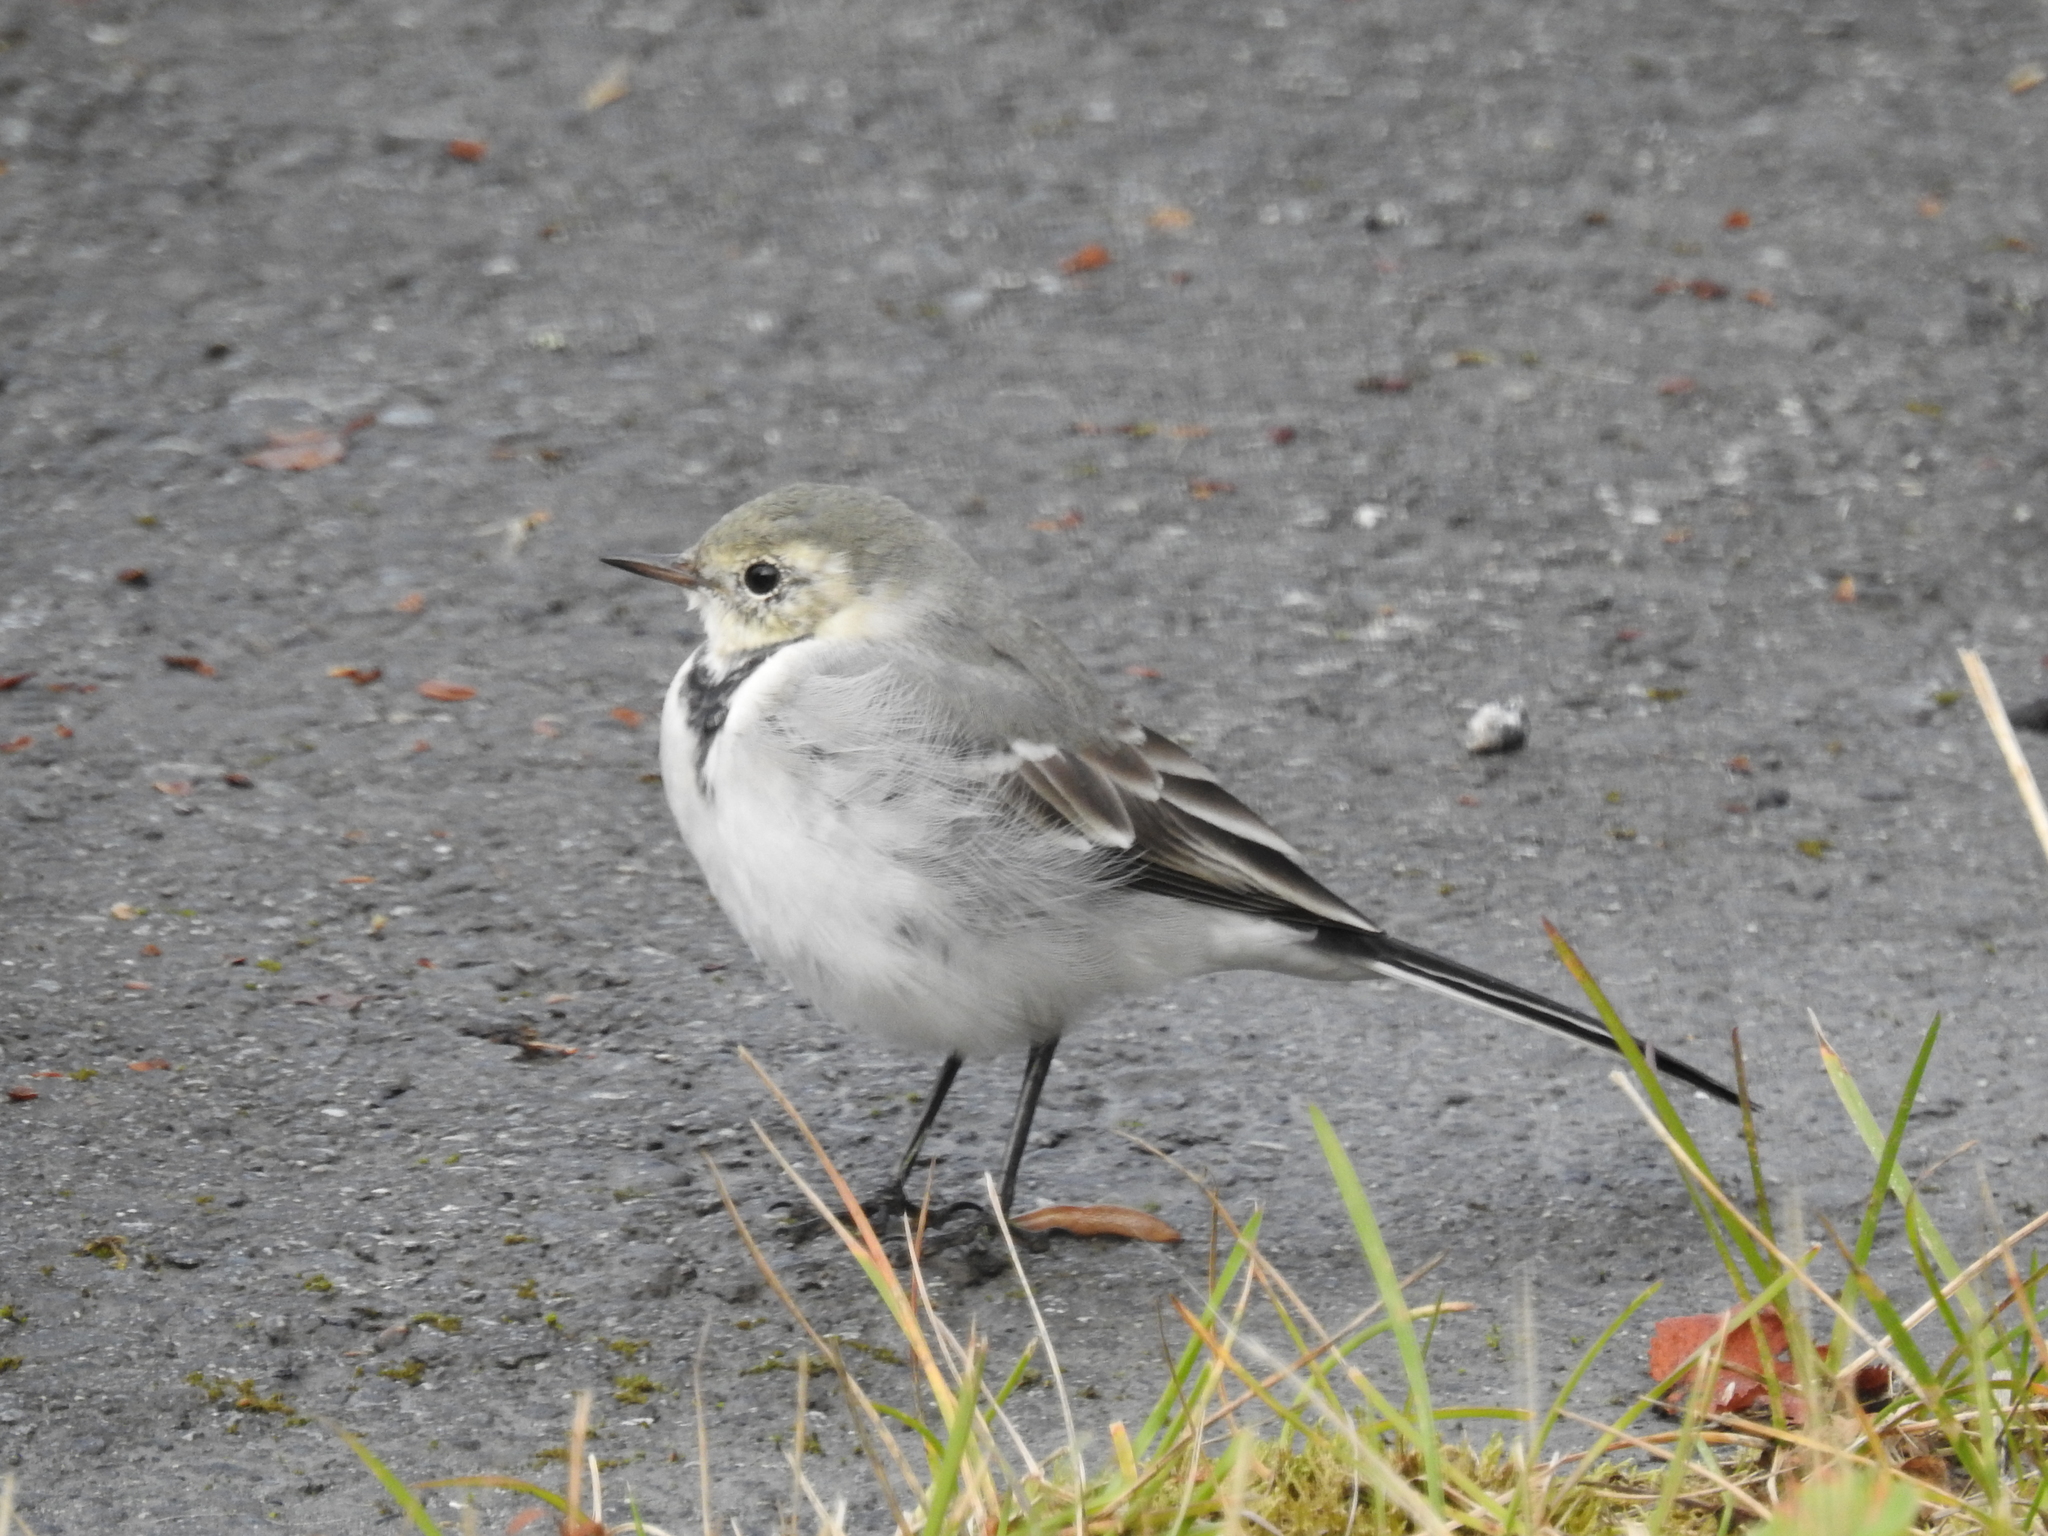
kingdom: Animalia
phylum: Chordata
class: Aves
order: Passeriformes
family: Motacillidae
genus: Motacilla
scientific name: Motacilla alba
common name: White wagtail
